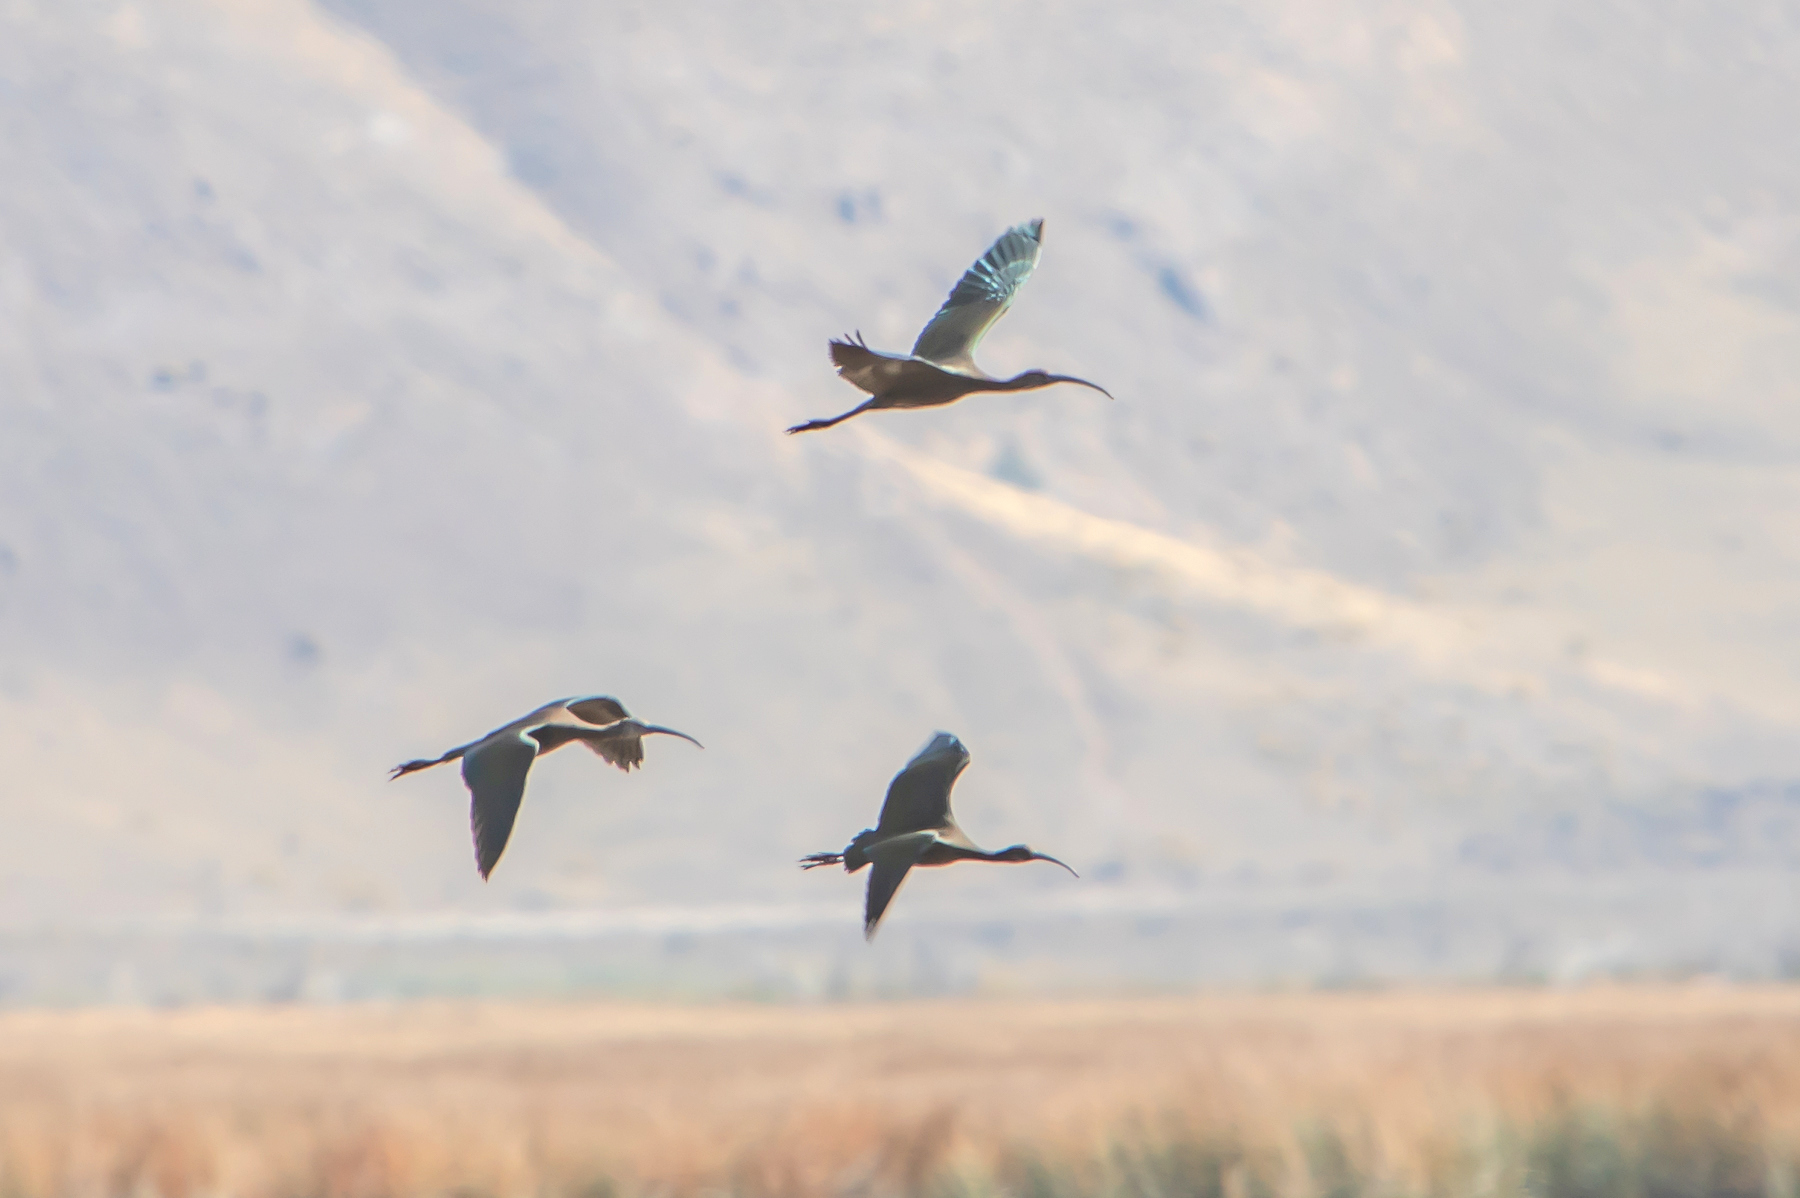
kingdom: Animalia
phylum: Chordata
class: Aves
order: Pelecaniformes
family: Threskiornithidae
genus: Plegadis
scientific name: Plegadis chihi
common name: White-faced ibis
